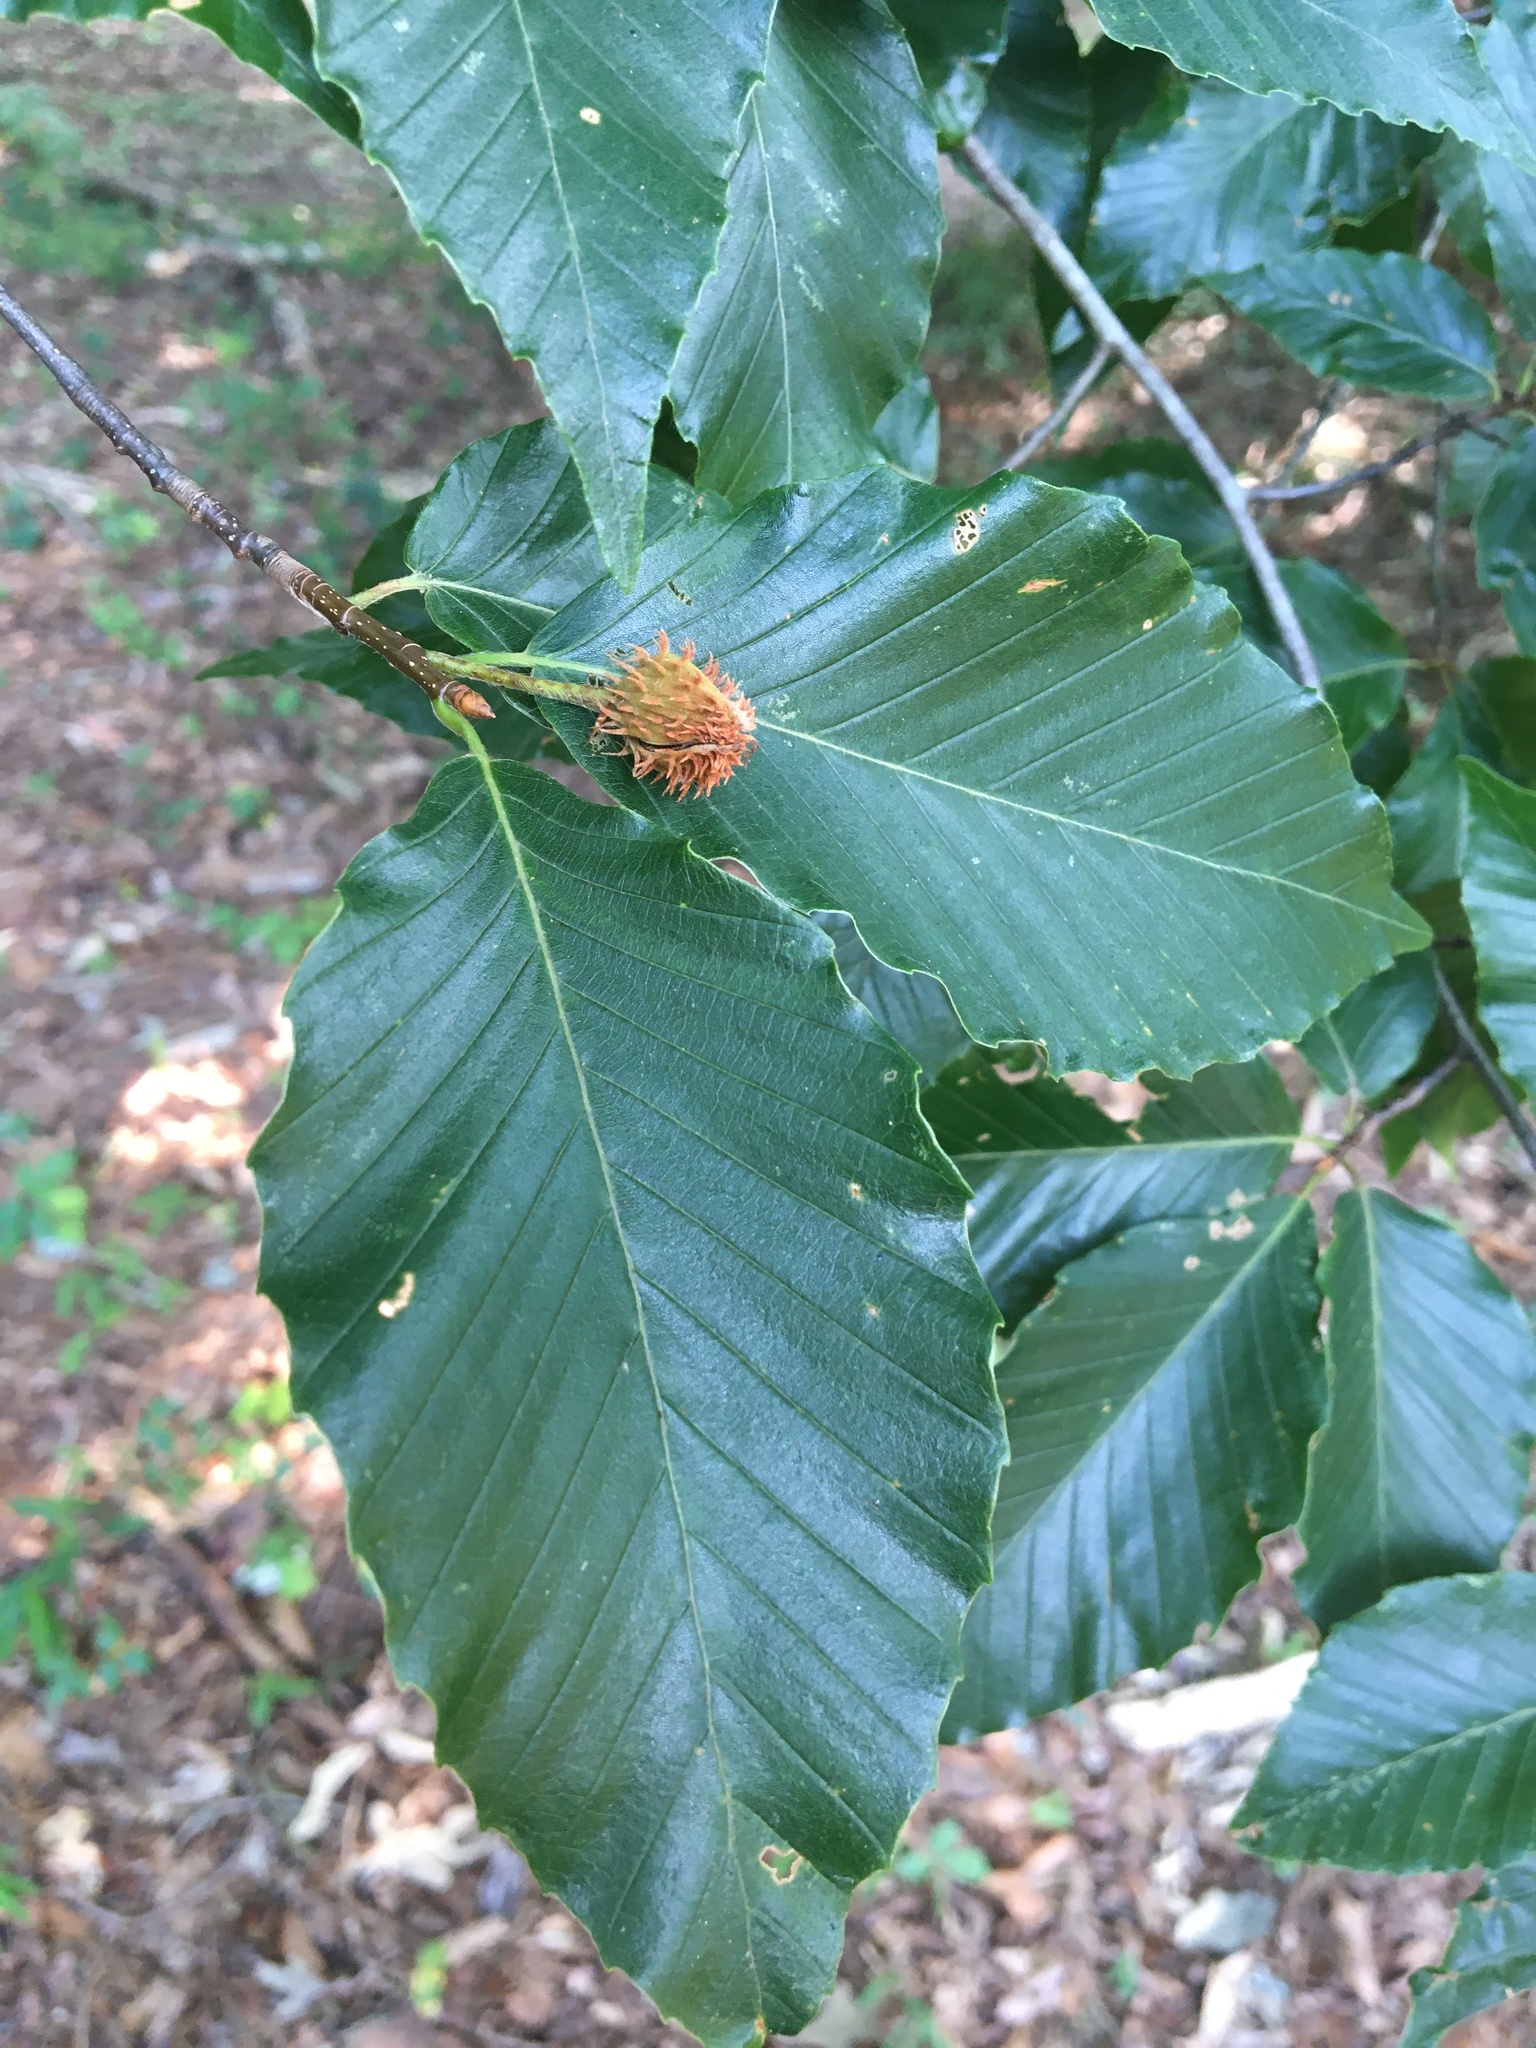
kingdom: Plantae
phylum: Tracheophyta
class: Magnoliopsida
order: Fagales
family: Fagaceae
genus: Fagus
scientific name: Fagus grandifolia
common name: American beech
